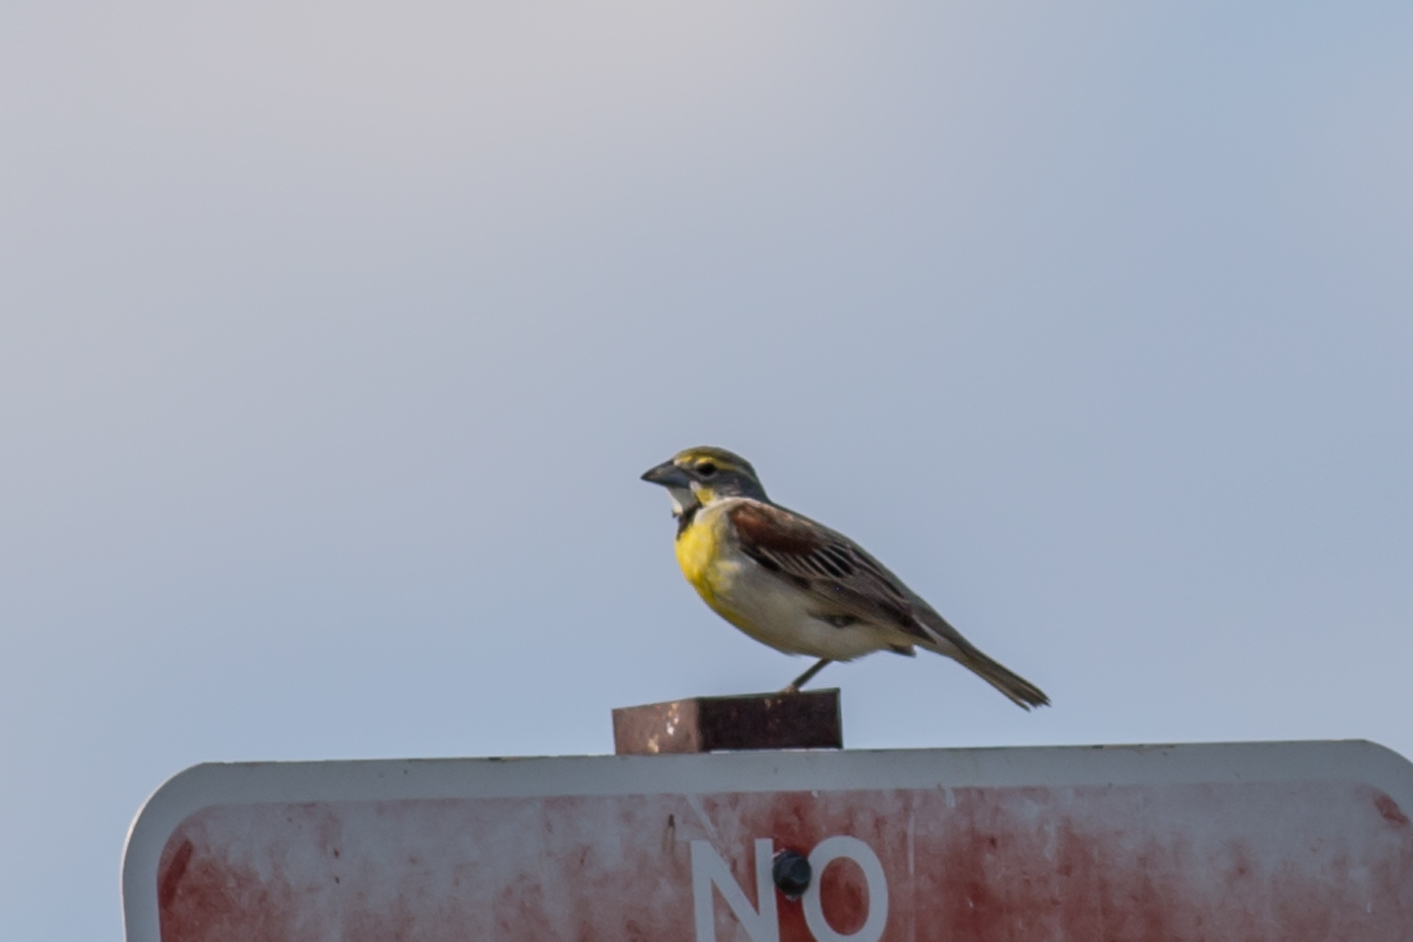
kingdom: Animalia
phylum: Chordata
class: Aves
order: Passeriformes
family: Cardinalidae
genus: Spiza
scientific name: Spiza americana
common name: Dickcissel
